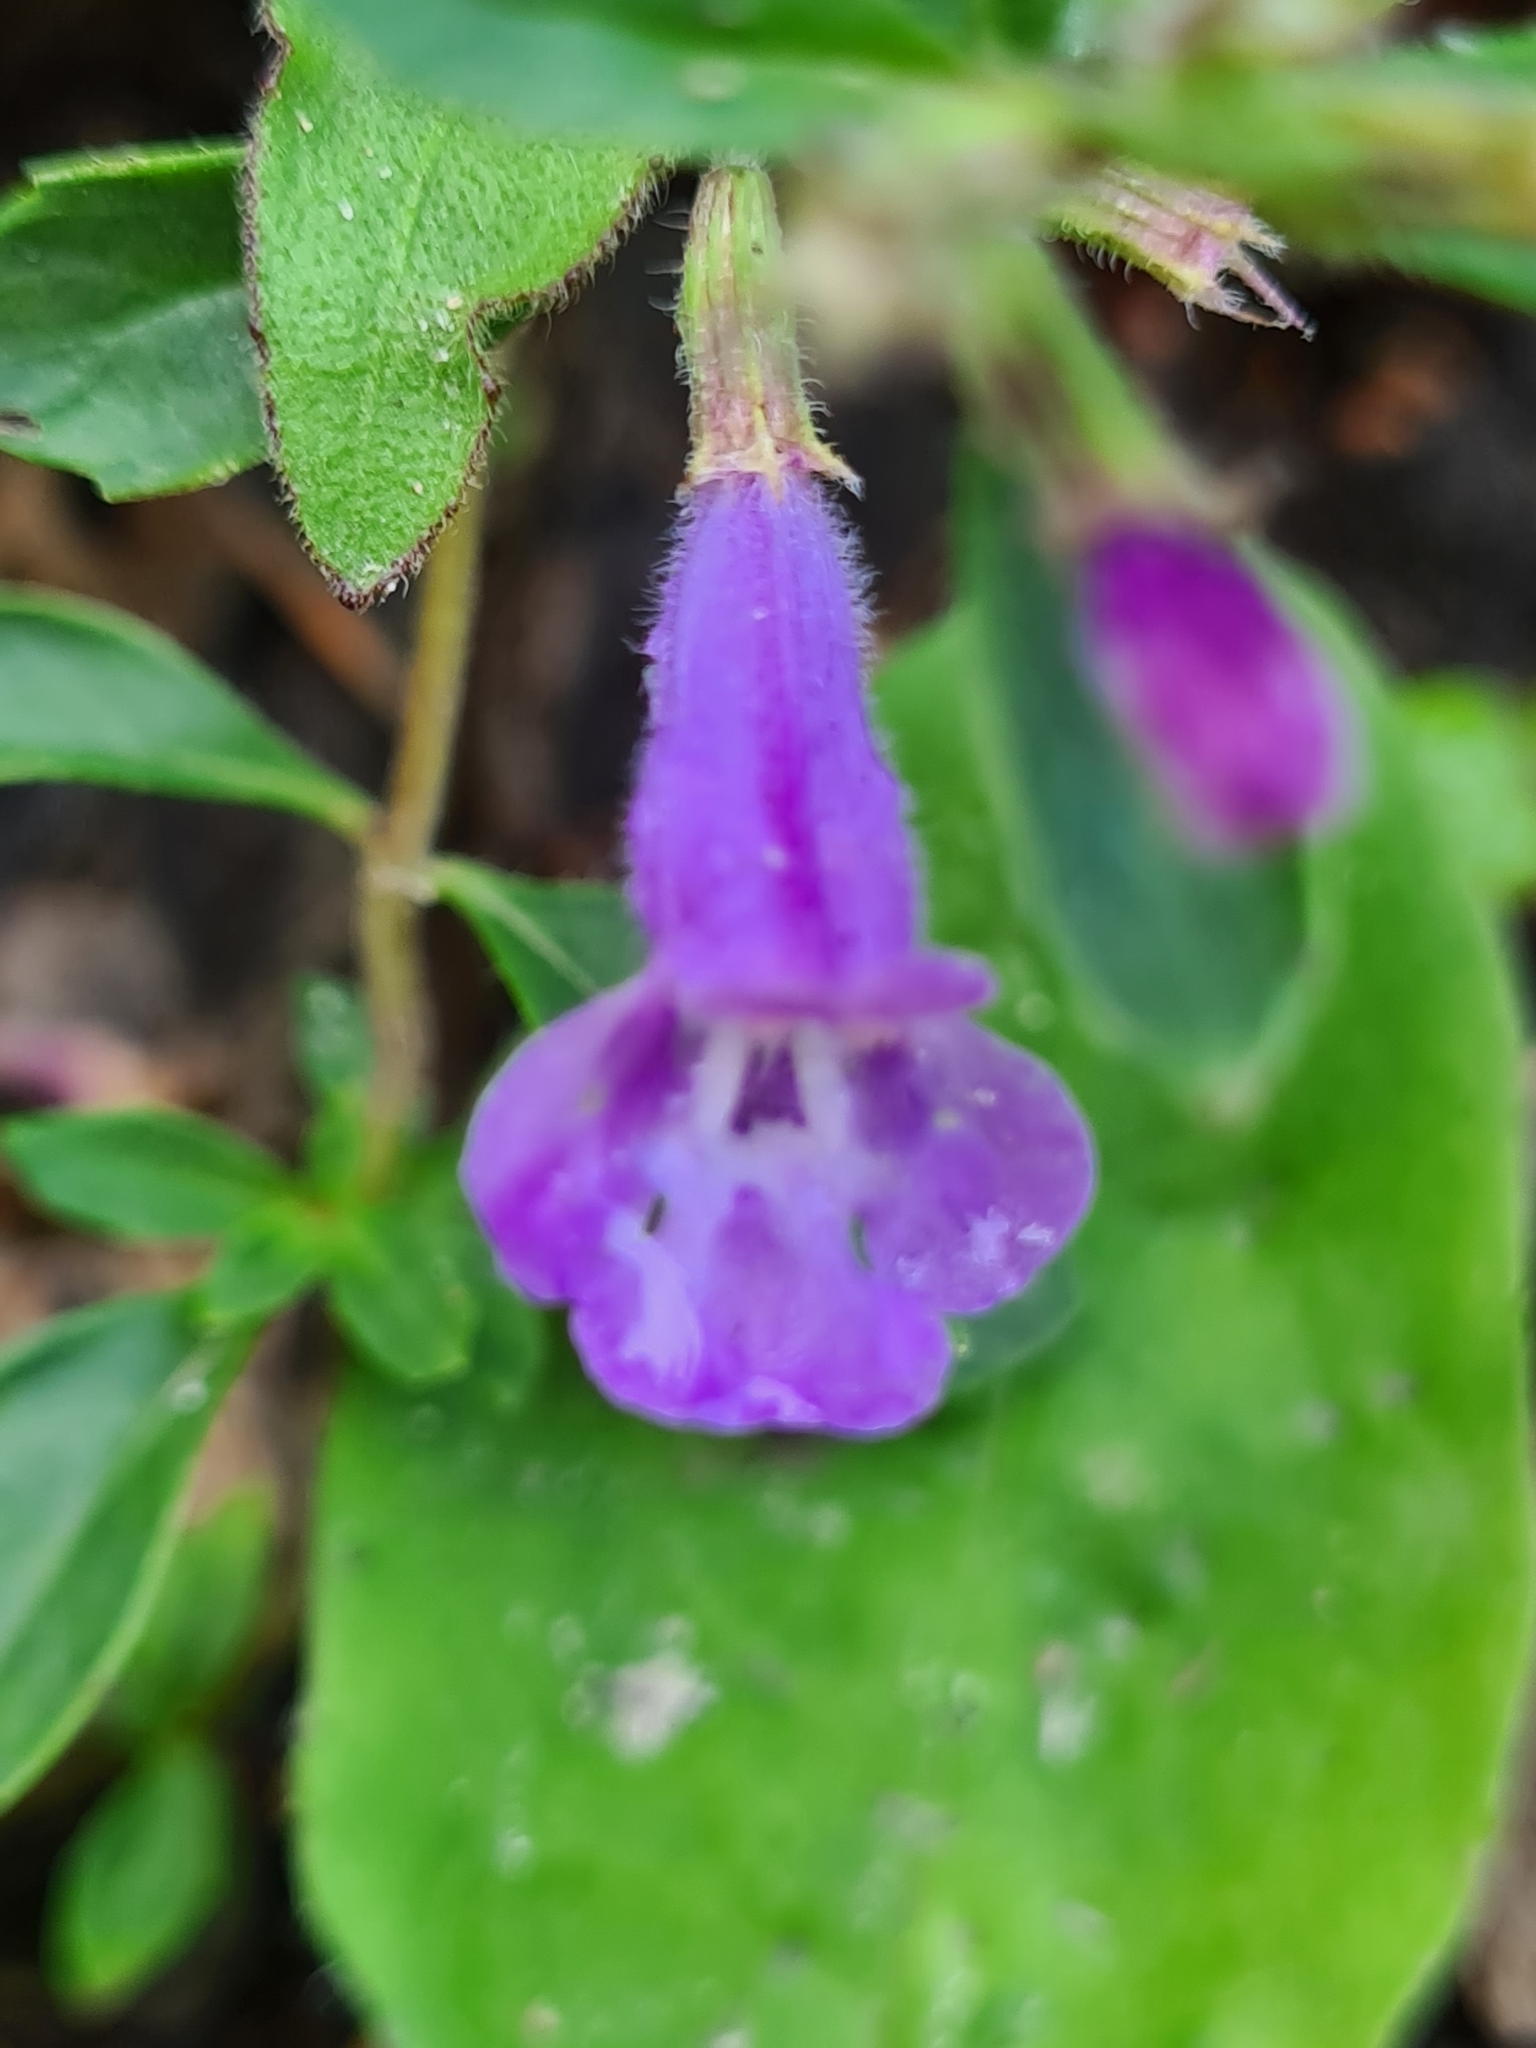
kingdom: Plantae
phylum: Tracheophyta
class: Magnoliopsida
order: Lamiales
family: Lamiaceae
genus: Clinopodium
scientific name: Clinopodium alpinum
